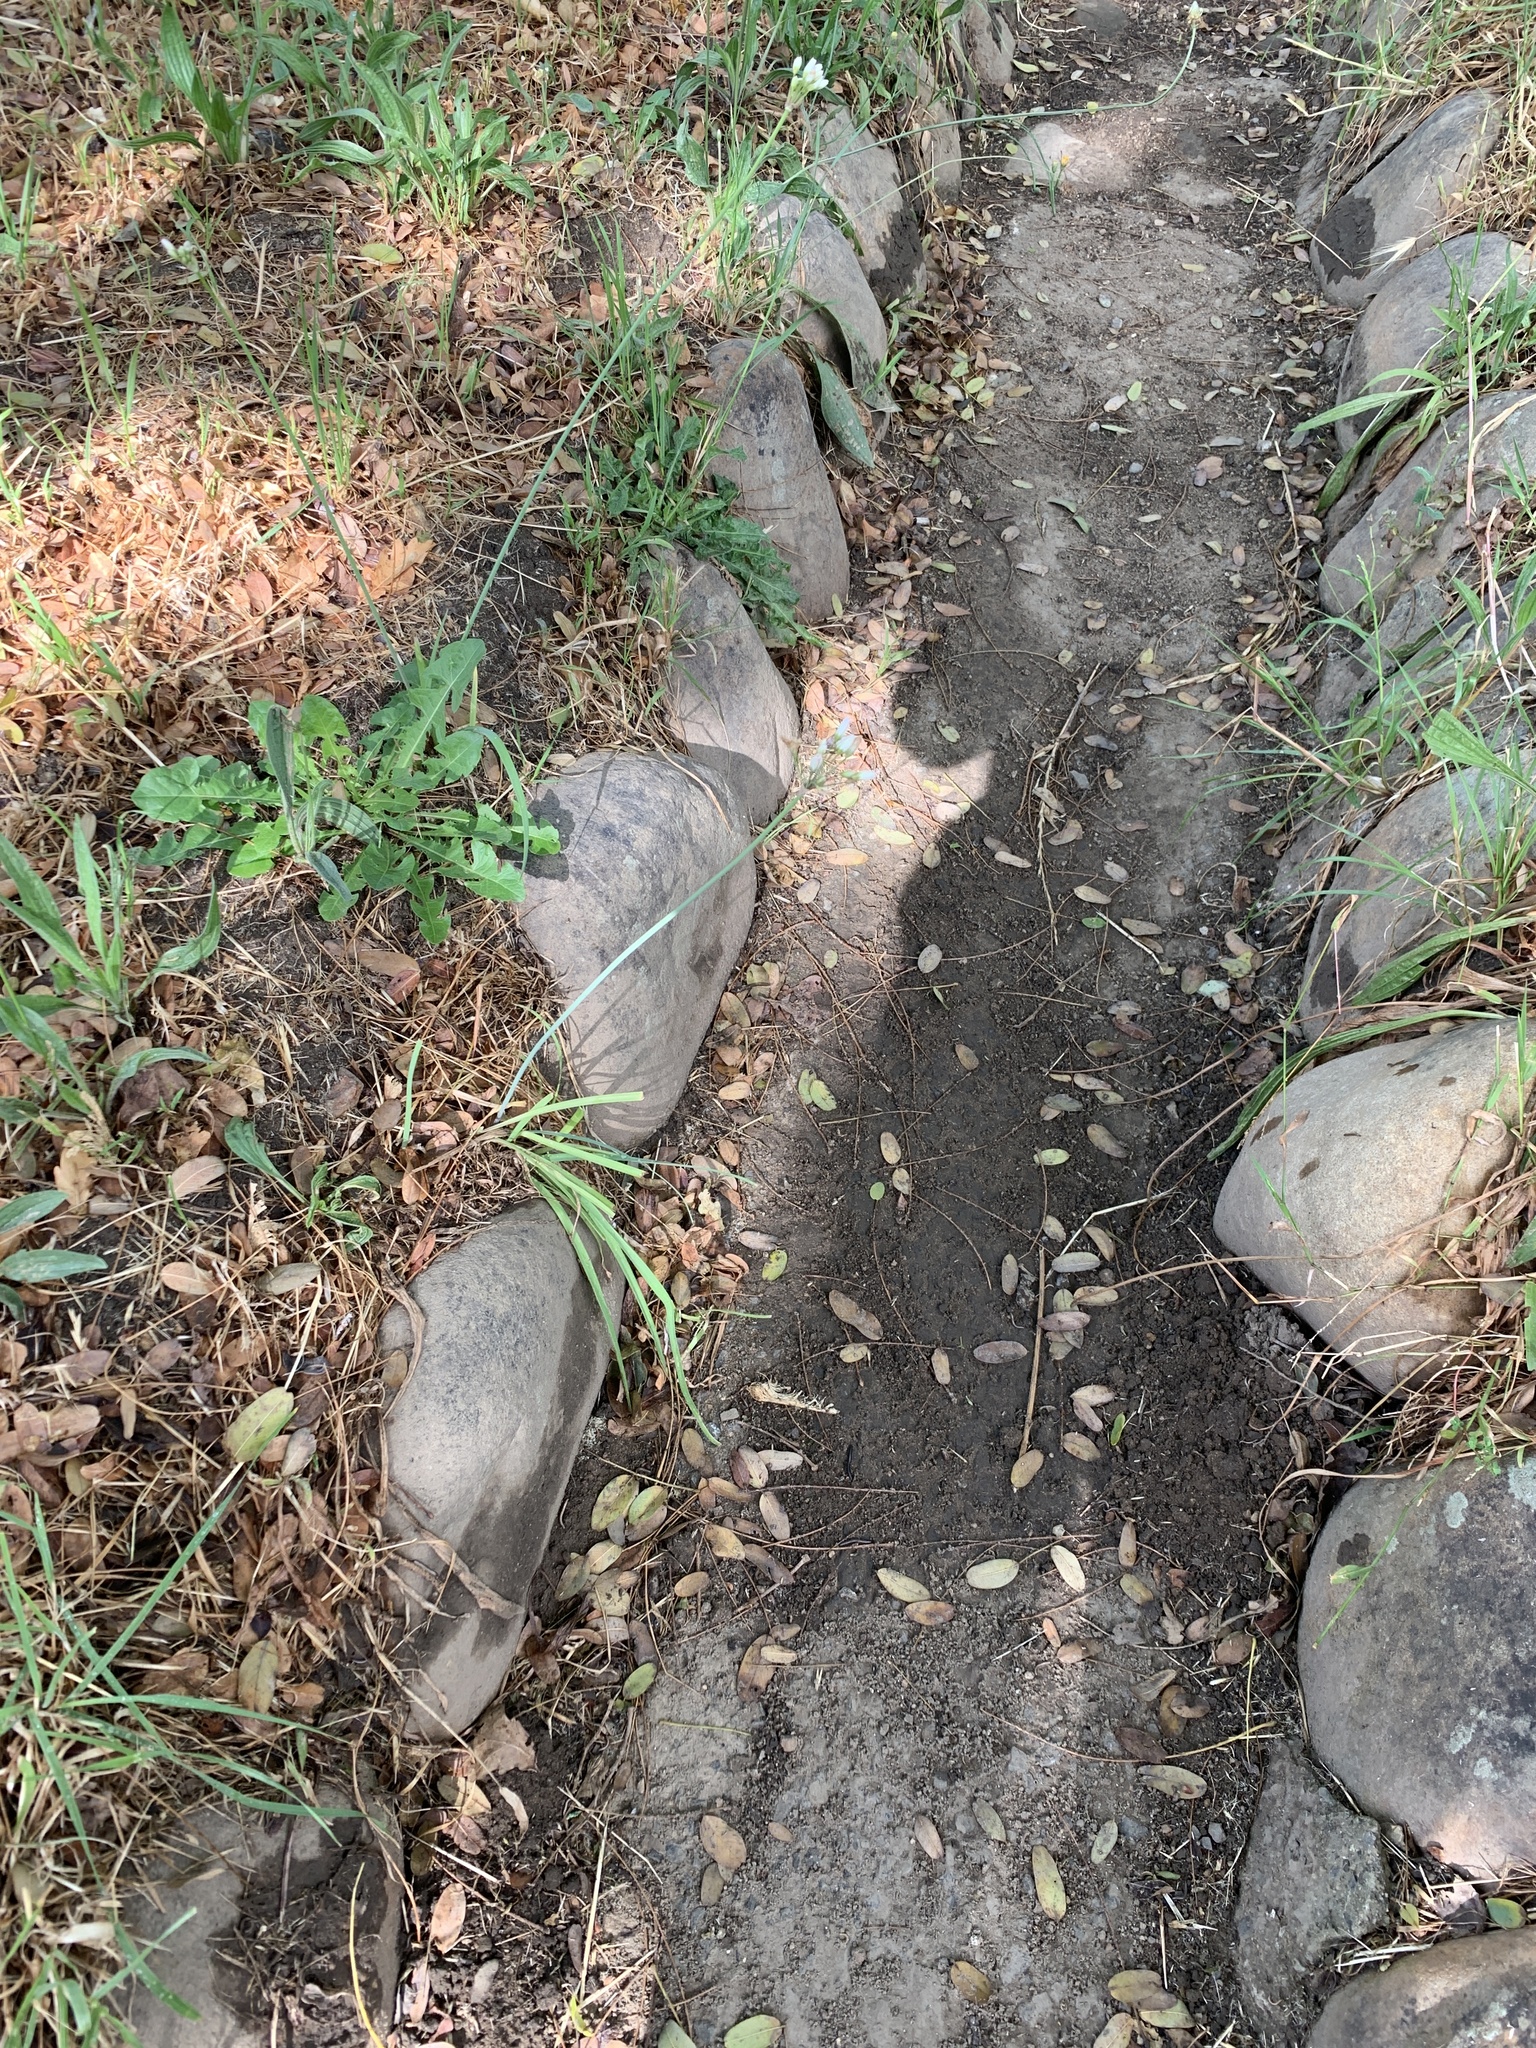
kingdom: Plantae
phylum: Tracheophyta
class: Liliopsida
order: Asparagales
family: Amaryllidaceae
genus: Nothoscordum
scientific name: Nothoscordum gracile
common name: Slender false garlic
